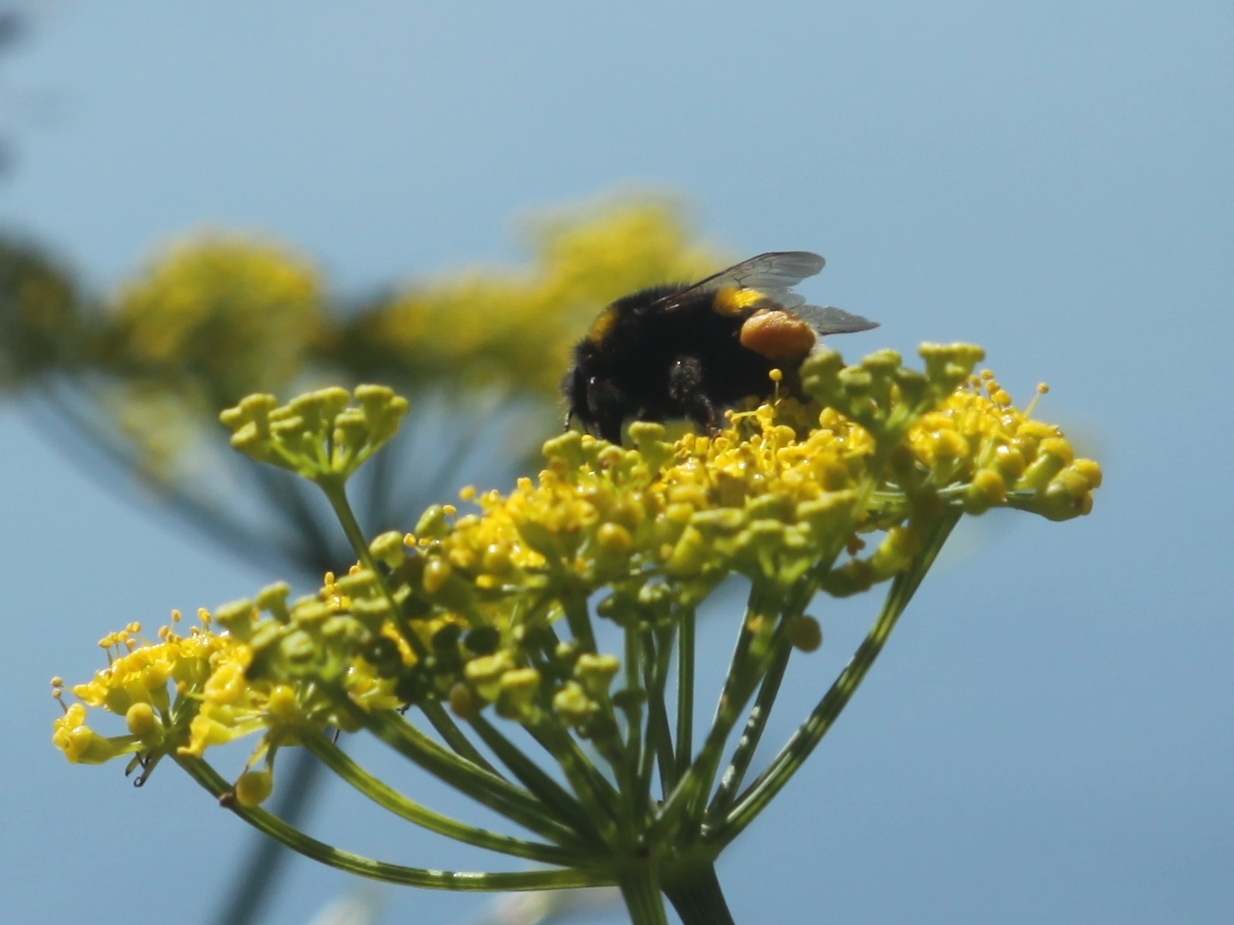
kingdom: Animalia
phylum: Arthropoda
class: Insecta
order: Hymenoptera
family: Apidae
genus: Bombus
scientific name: Bombus terrestris
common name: Buff-tailed bumblebee
